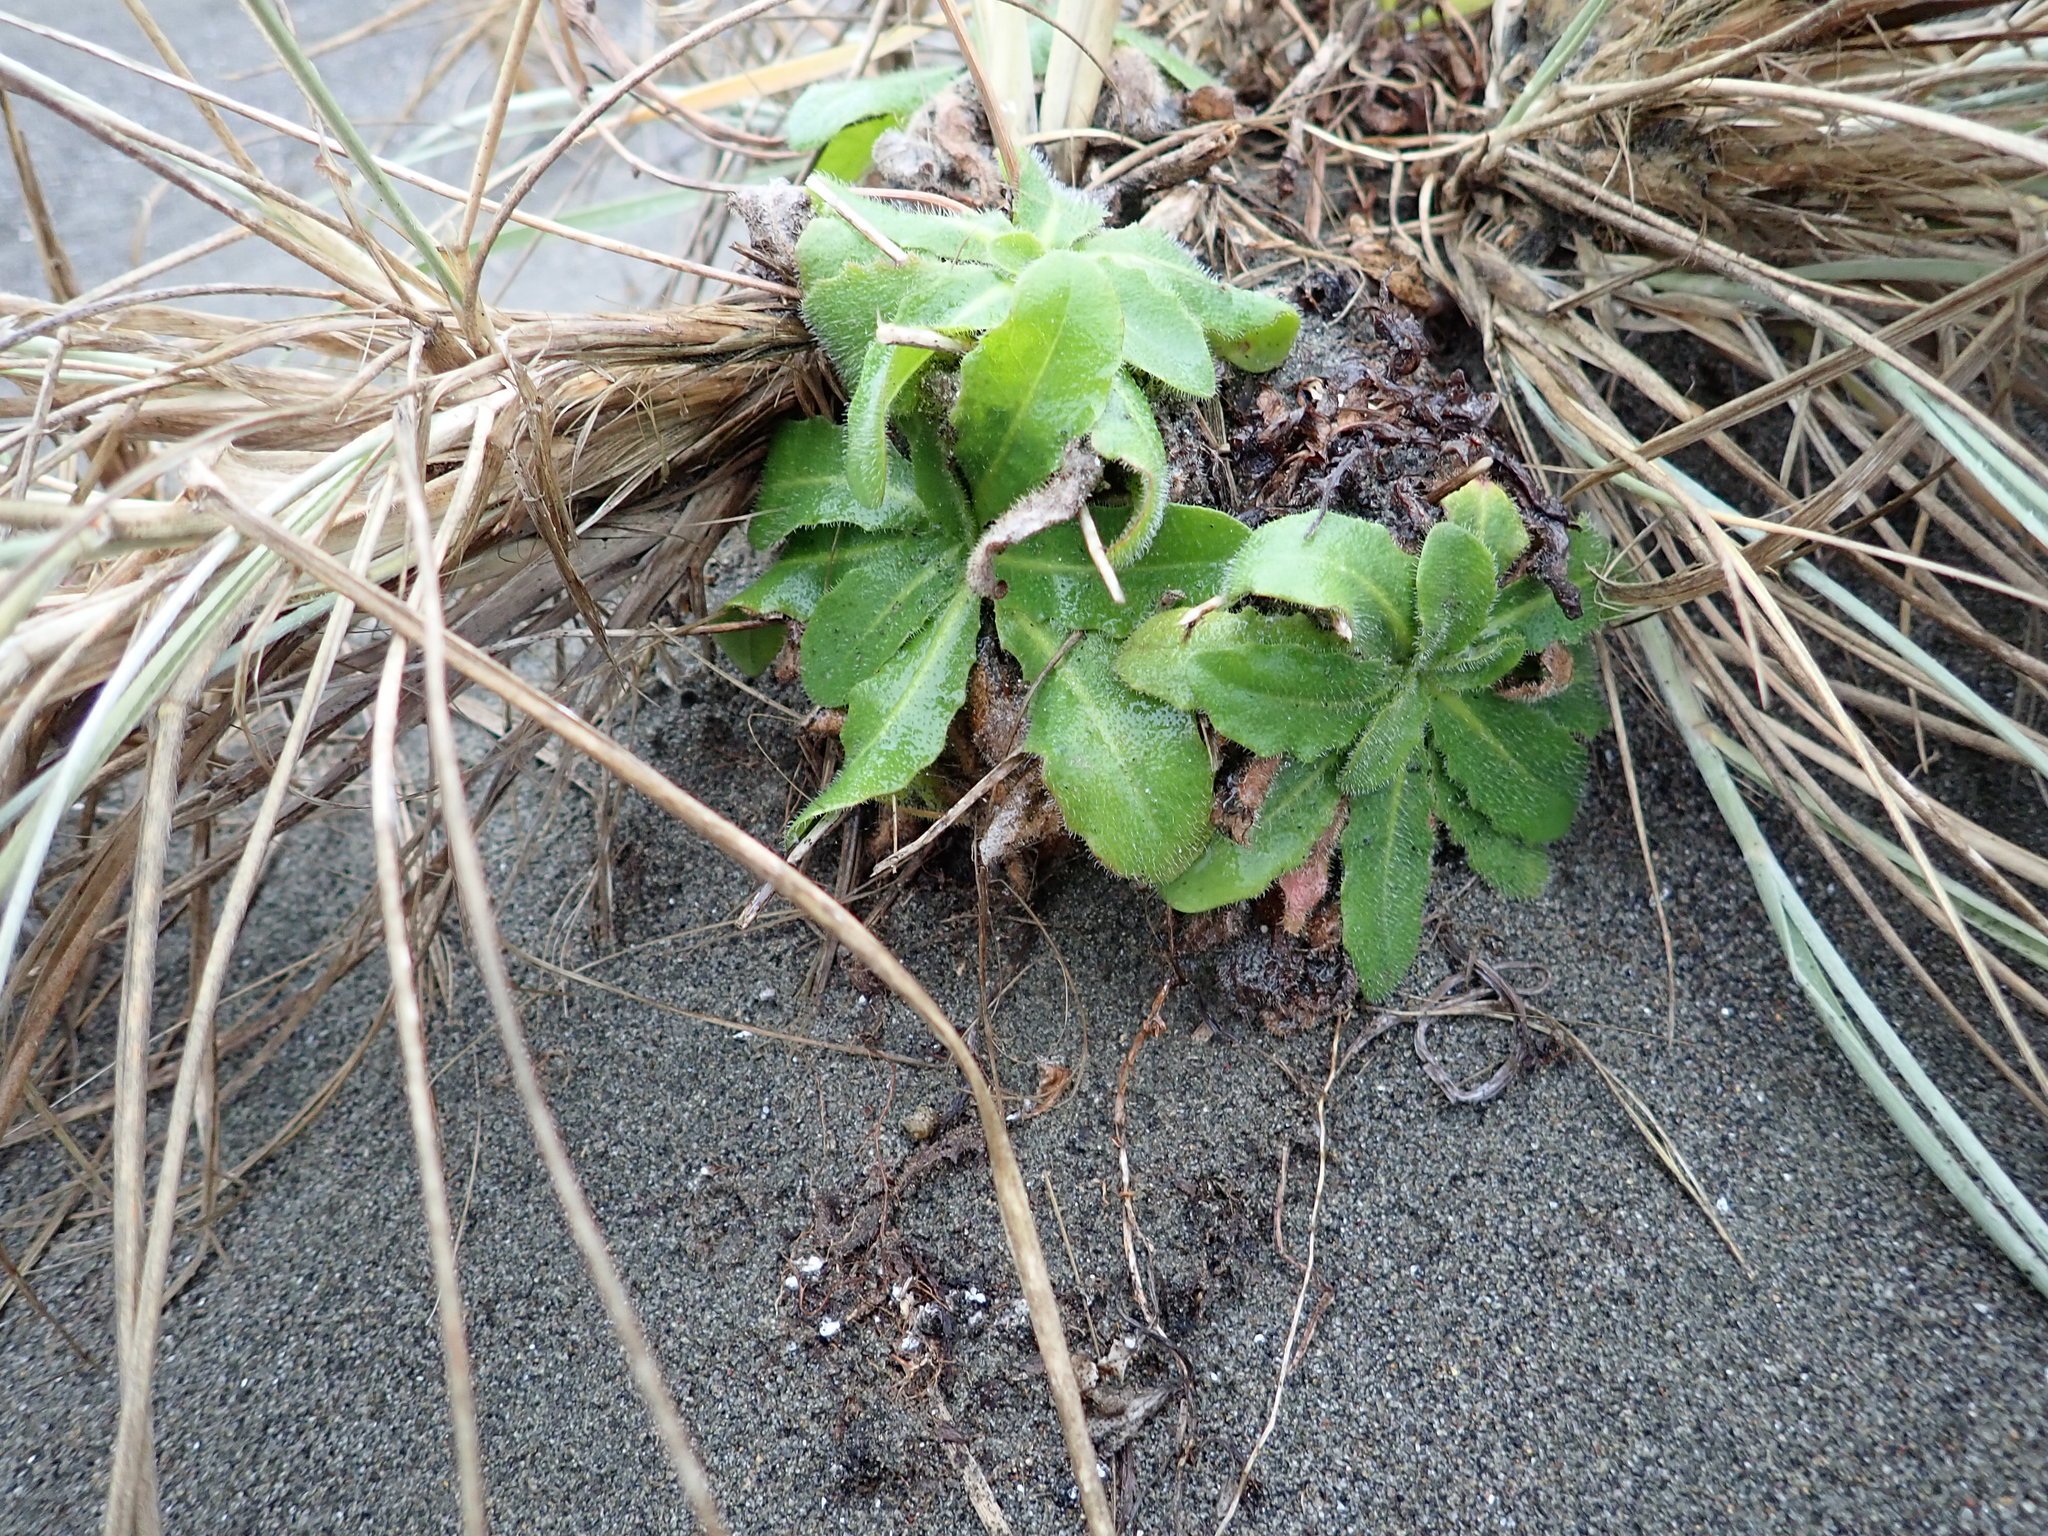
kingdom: Plantae
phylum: Tracheophyta
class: Magnoliopsida
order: Asterales
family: Asteraceae
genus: Hypochaeris
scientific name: Hypochaeris radicata
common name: Flatweed
